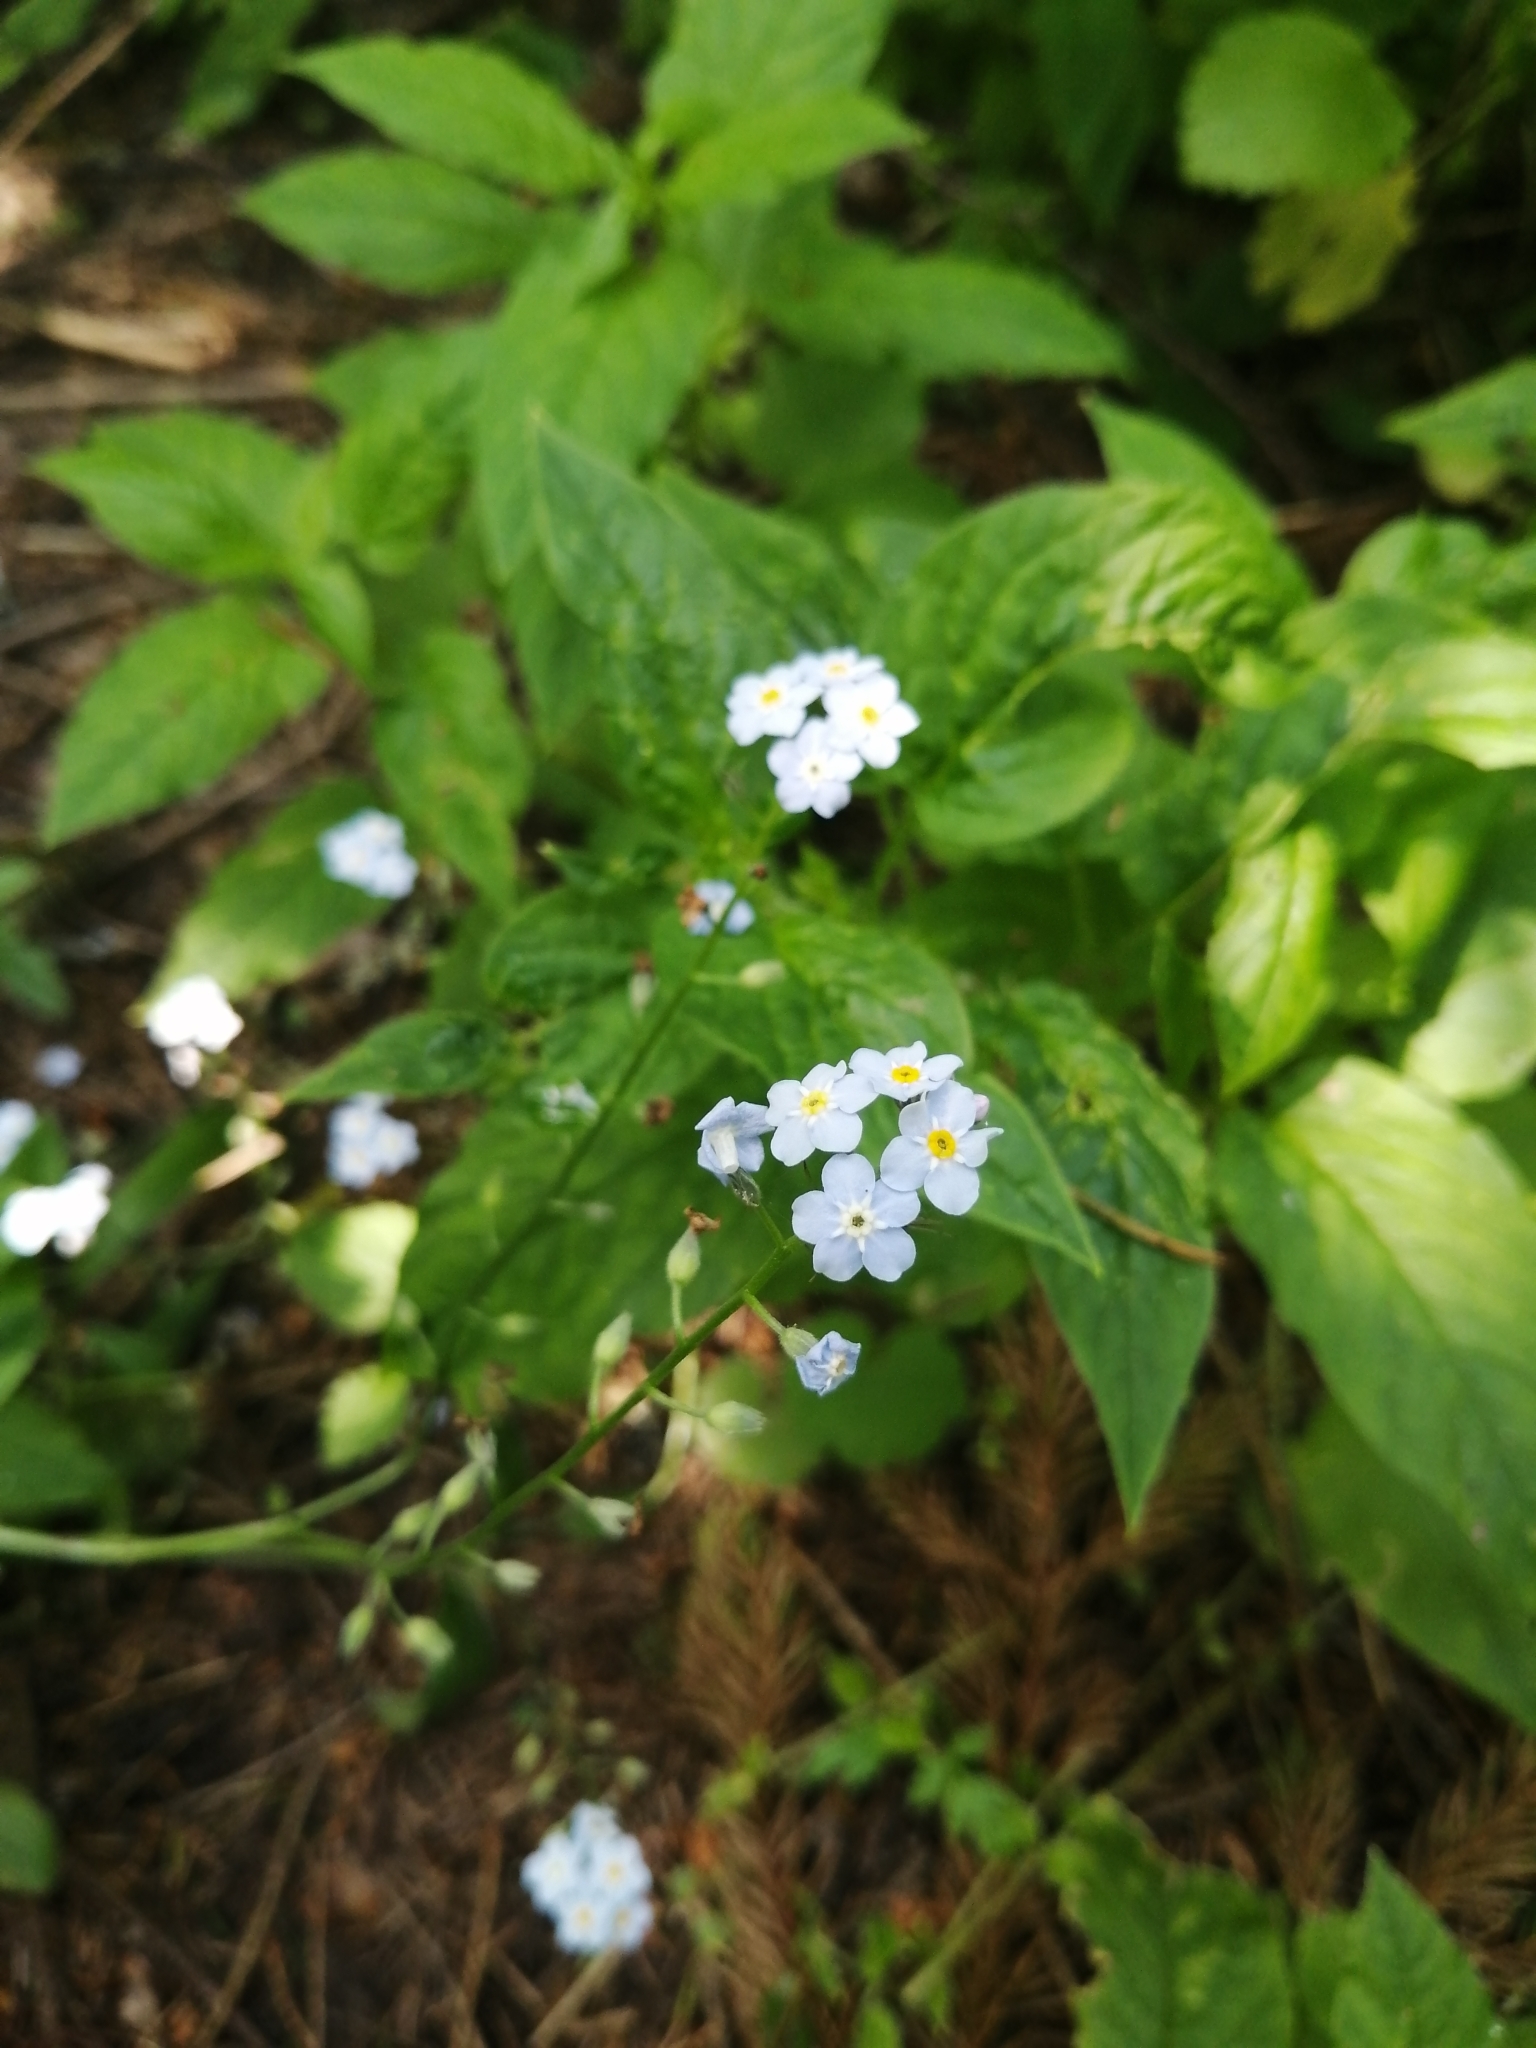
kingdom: Plantae
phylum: Tracheophyta
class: Magnoliopsida
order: Boraginales
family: Boraginaceae
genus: Myosotis
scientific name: Myosotis sylvatica
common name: Wood forget-me-not
